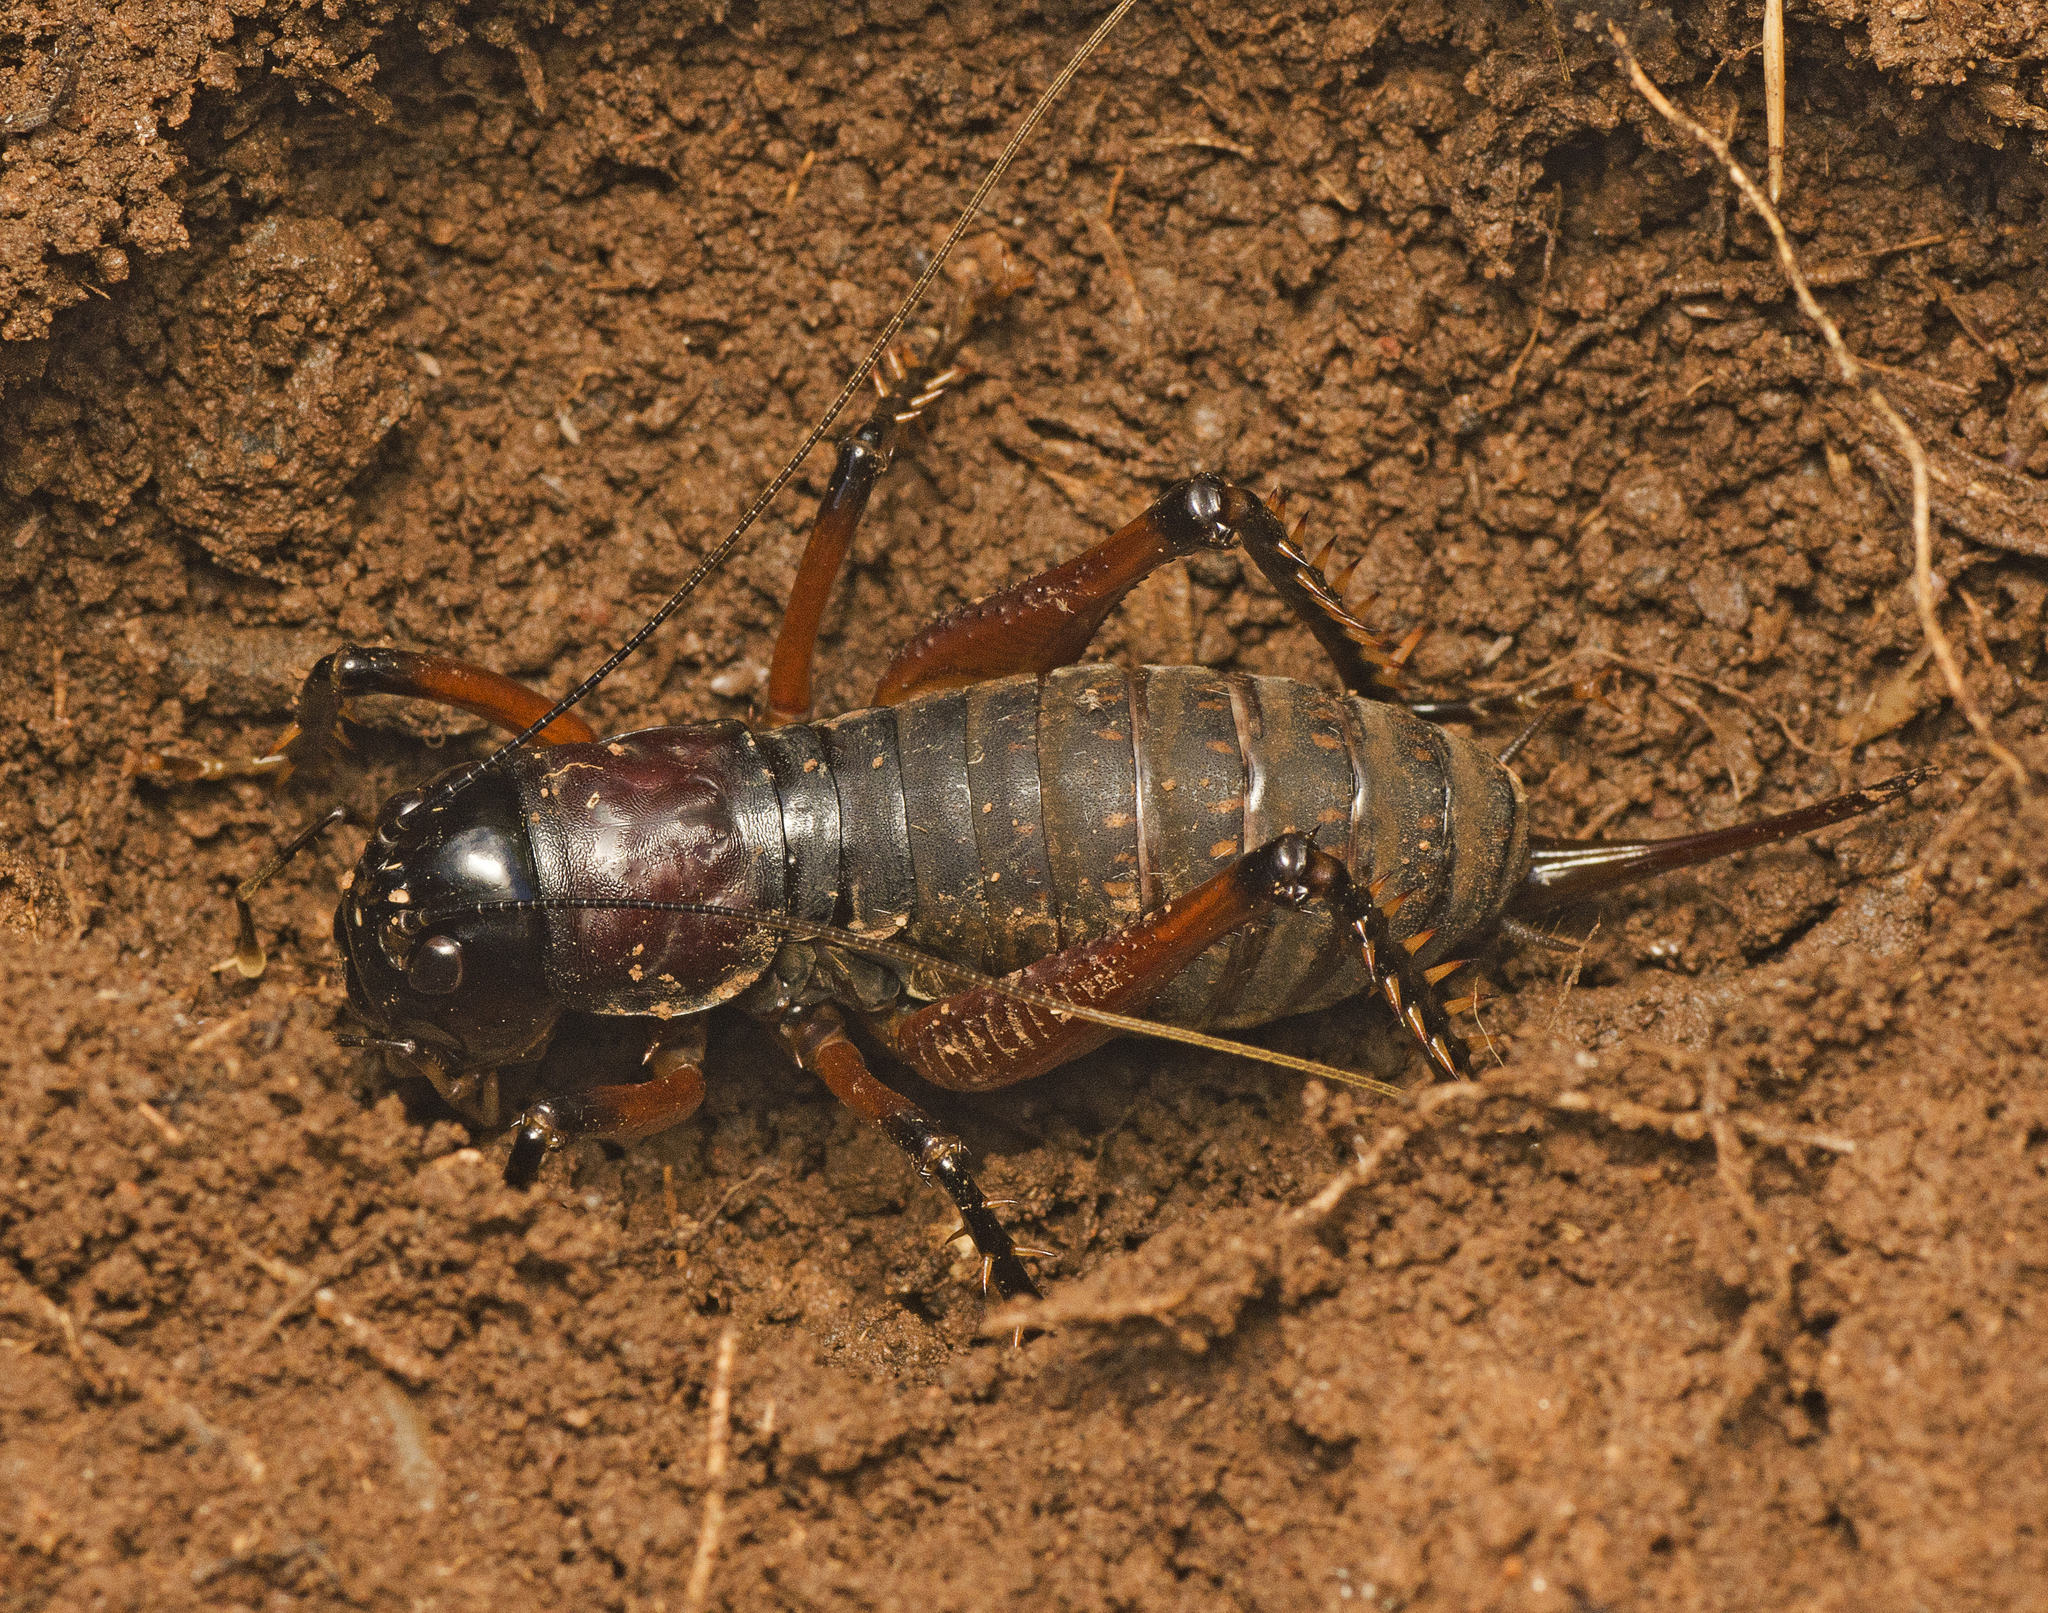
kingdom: Animalia
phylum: Arthropoda
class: Insecta
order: Orthoptera
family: Anostostomatidae
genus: Anostostoma
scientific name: Anostostoma opacum
